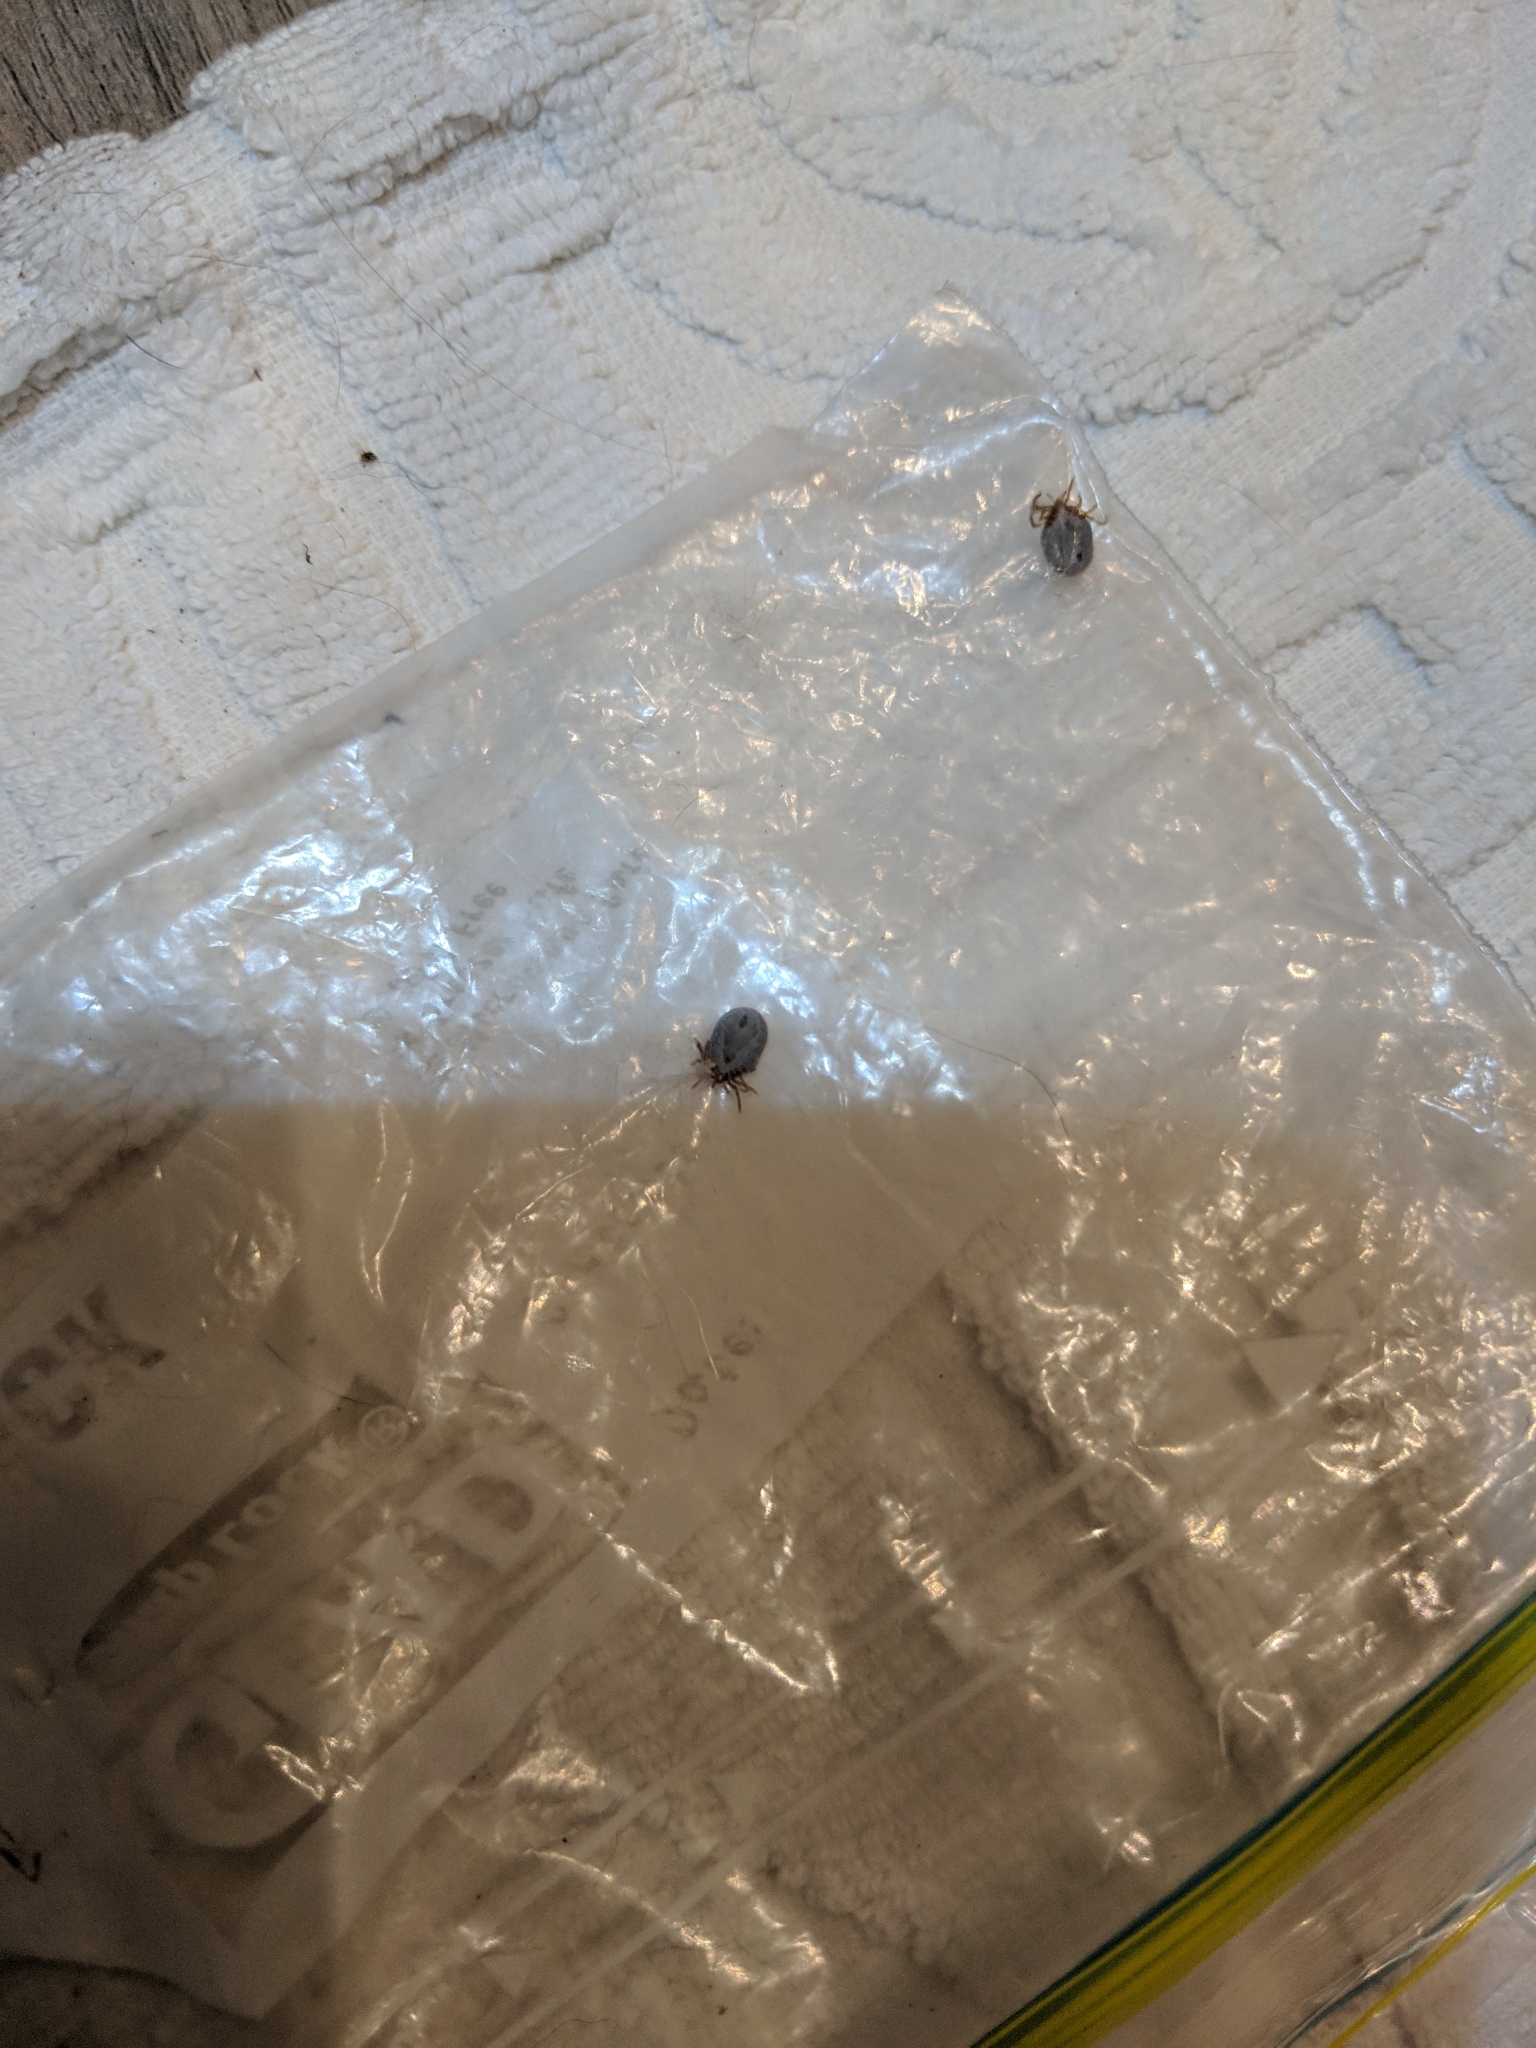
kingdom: Animalia
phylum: Arthropoda
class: Arachnida
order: Ixodida
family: Ixodidae
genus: Ixodes
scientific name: Ixodes holocyclus
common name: Australian paralysis tick
